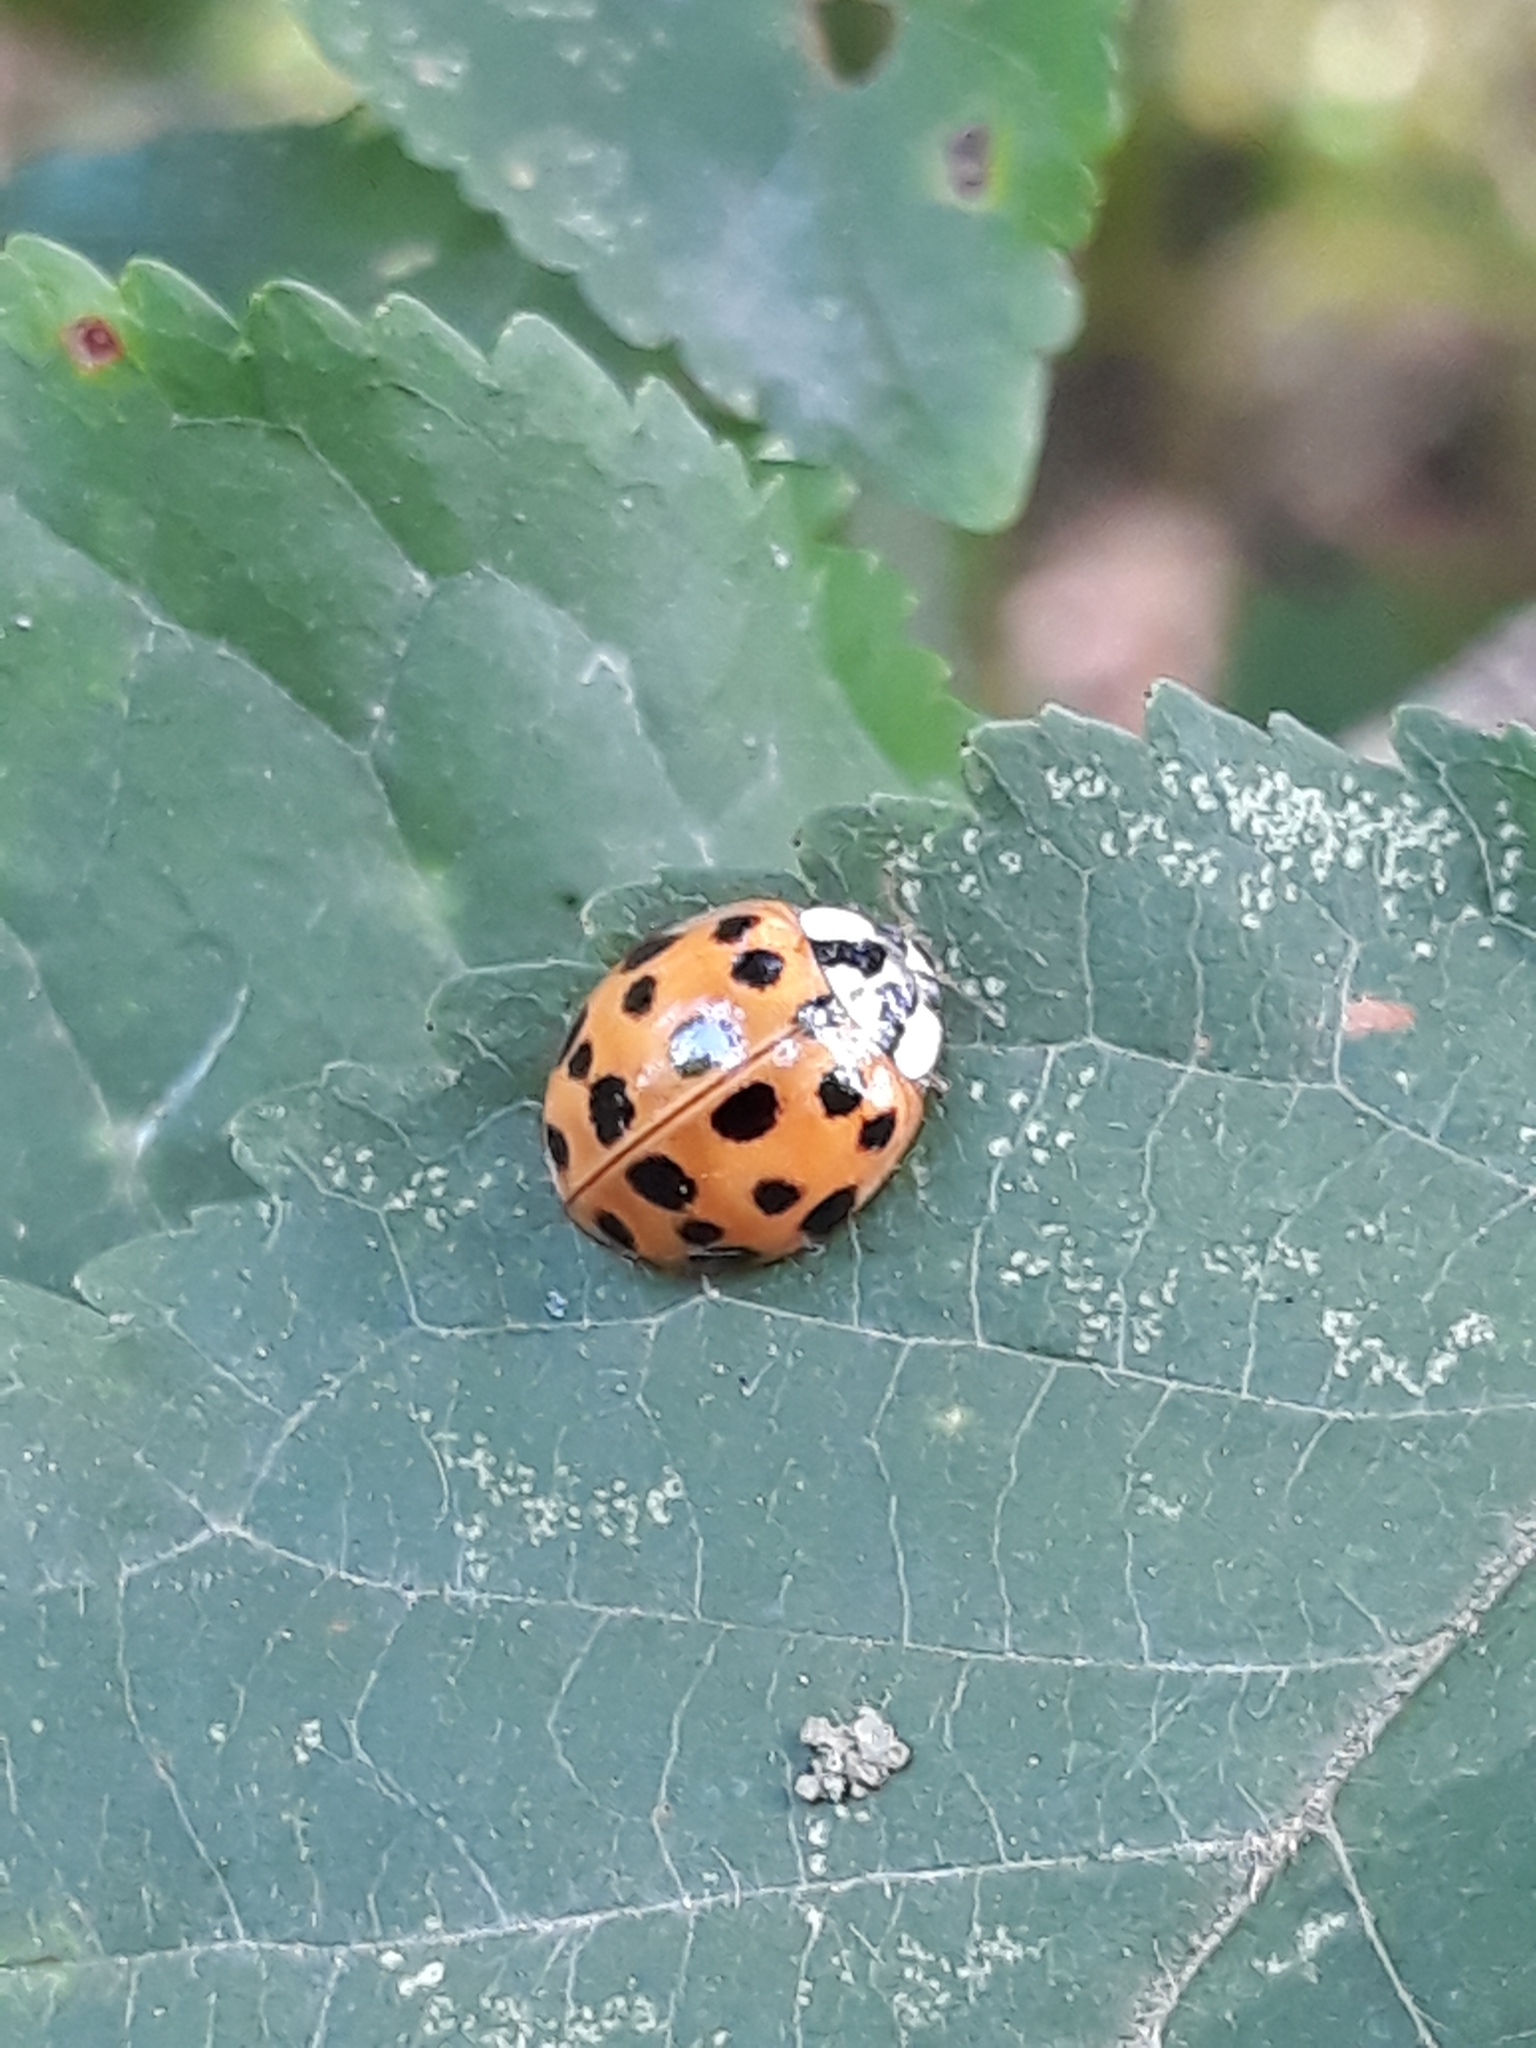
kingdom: Animalia
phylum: Arthropoda
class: Insecta
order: Coleoptera
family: Coccinellidae
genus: Harmonia
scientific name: Harmonia axyridis
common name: Harlequin ladybird
